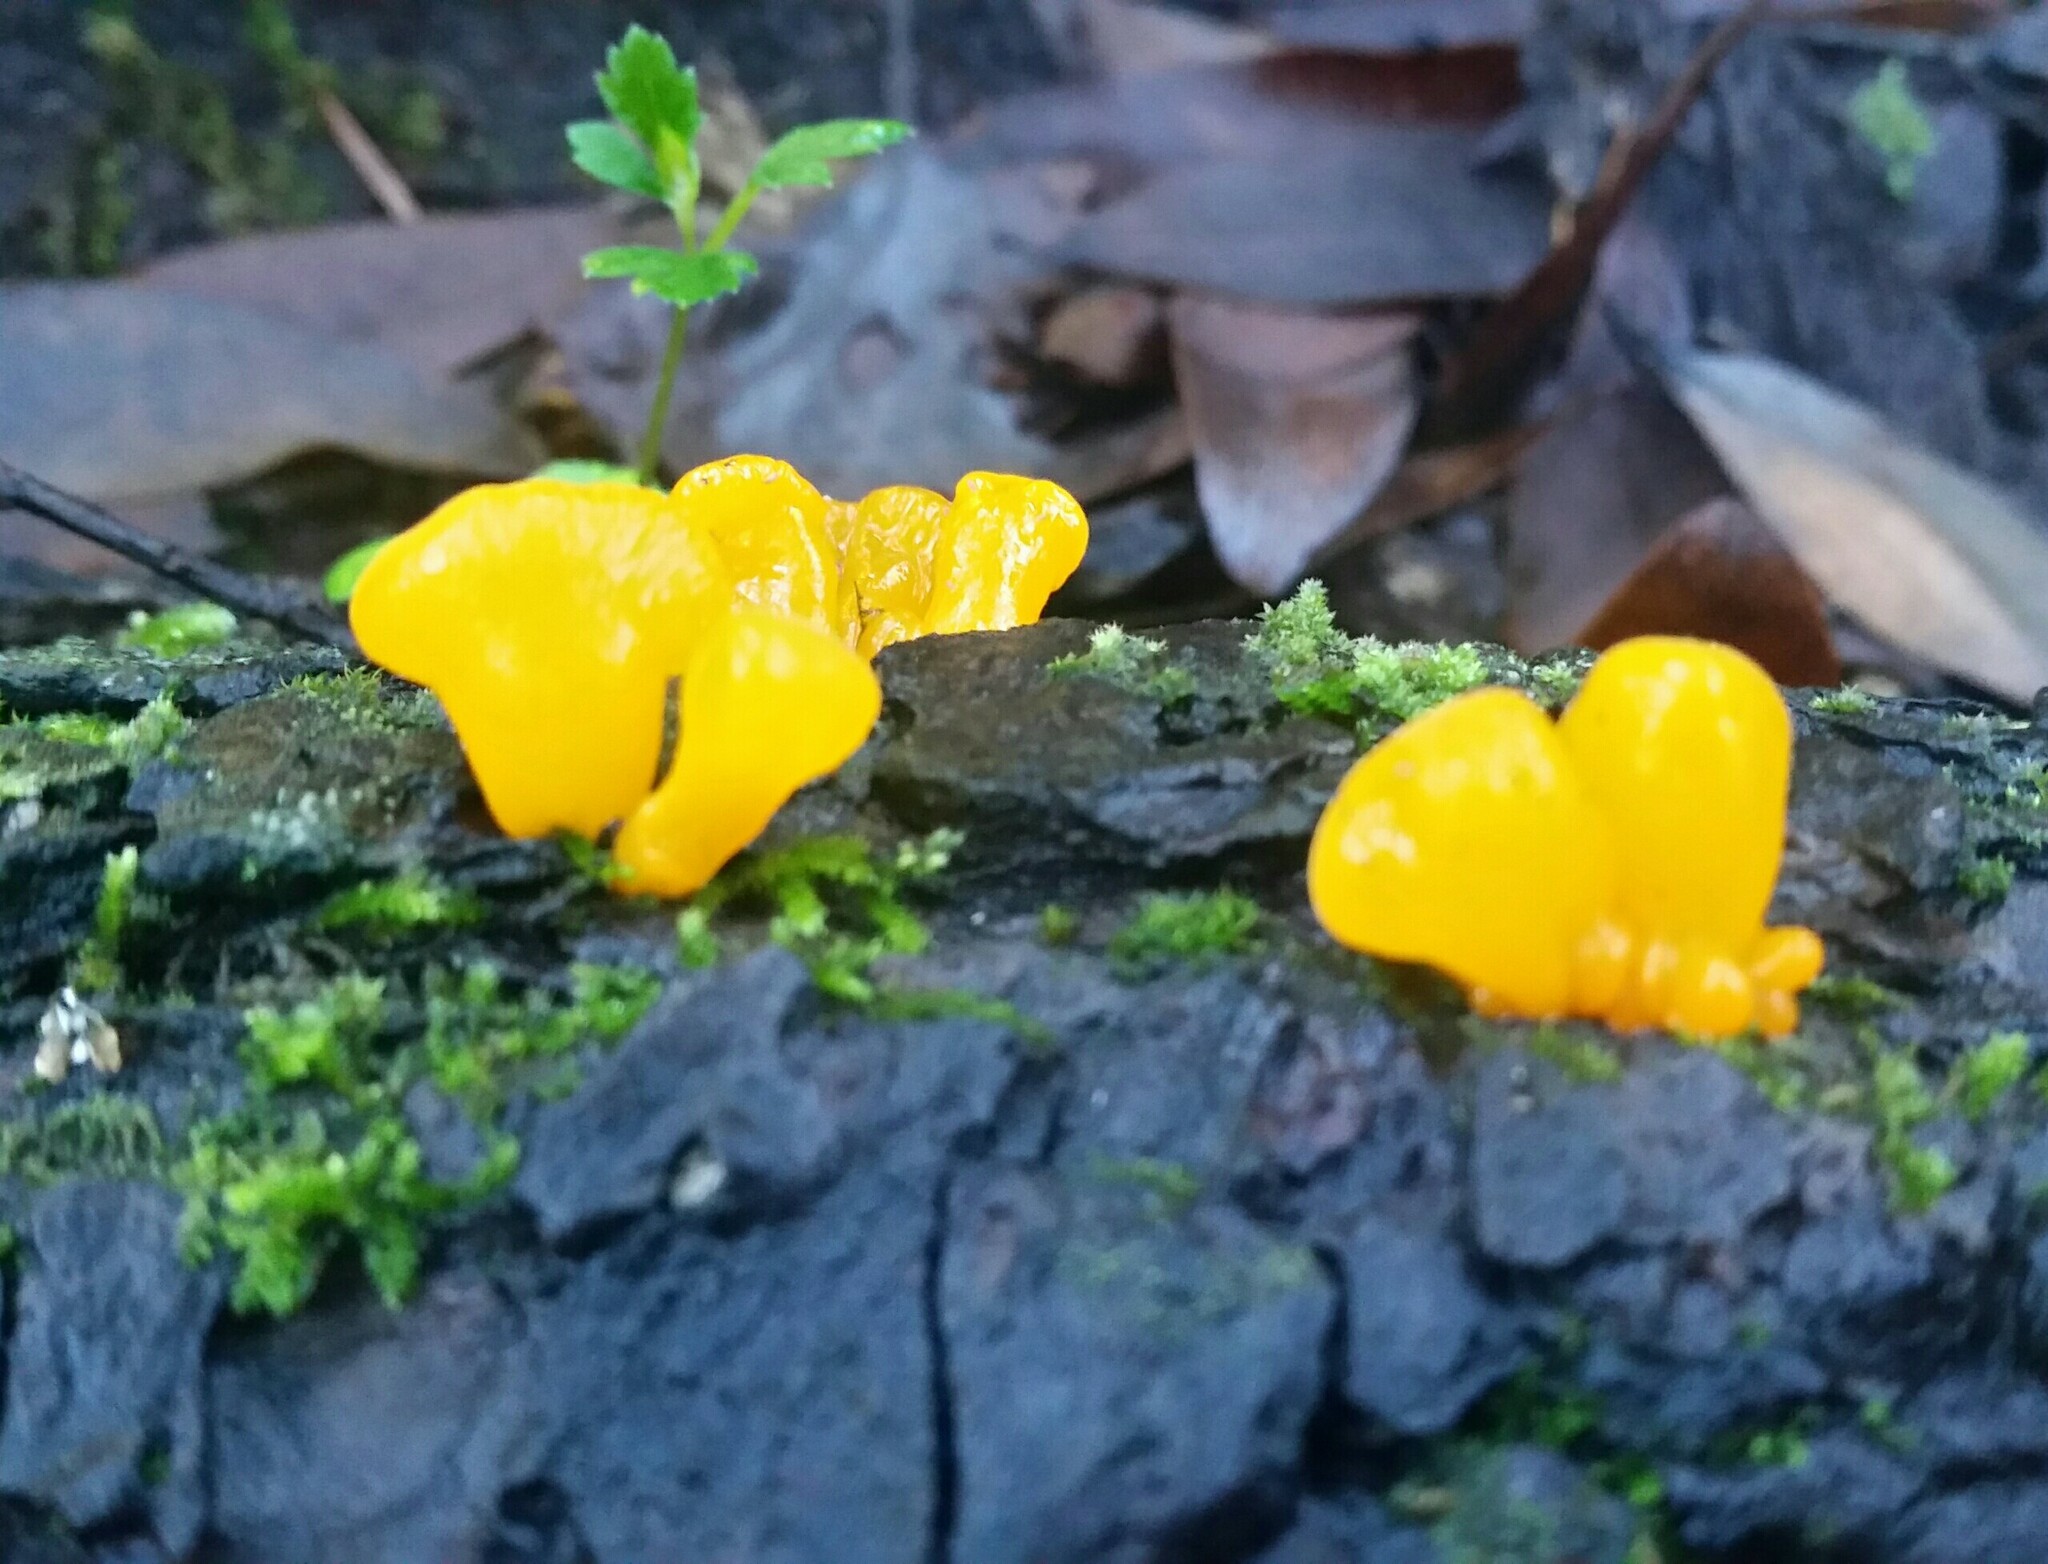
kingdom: Fungi
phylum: Basidiomycota
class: Tremellomycetes
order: Tremellales
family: Naemateliaceae
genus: Naematelia
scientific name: Naematelia aurantia
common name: Golden ear
